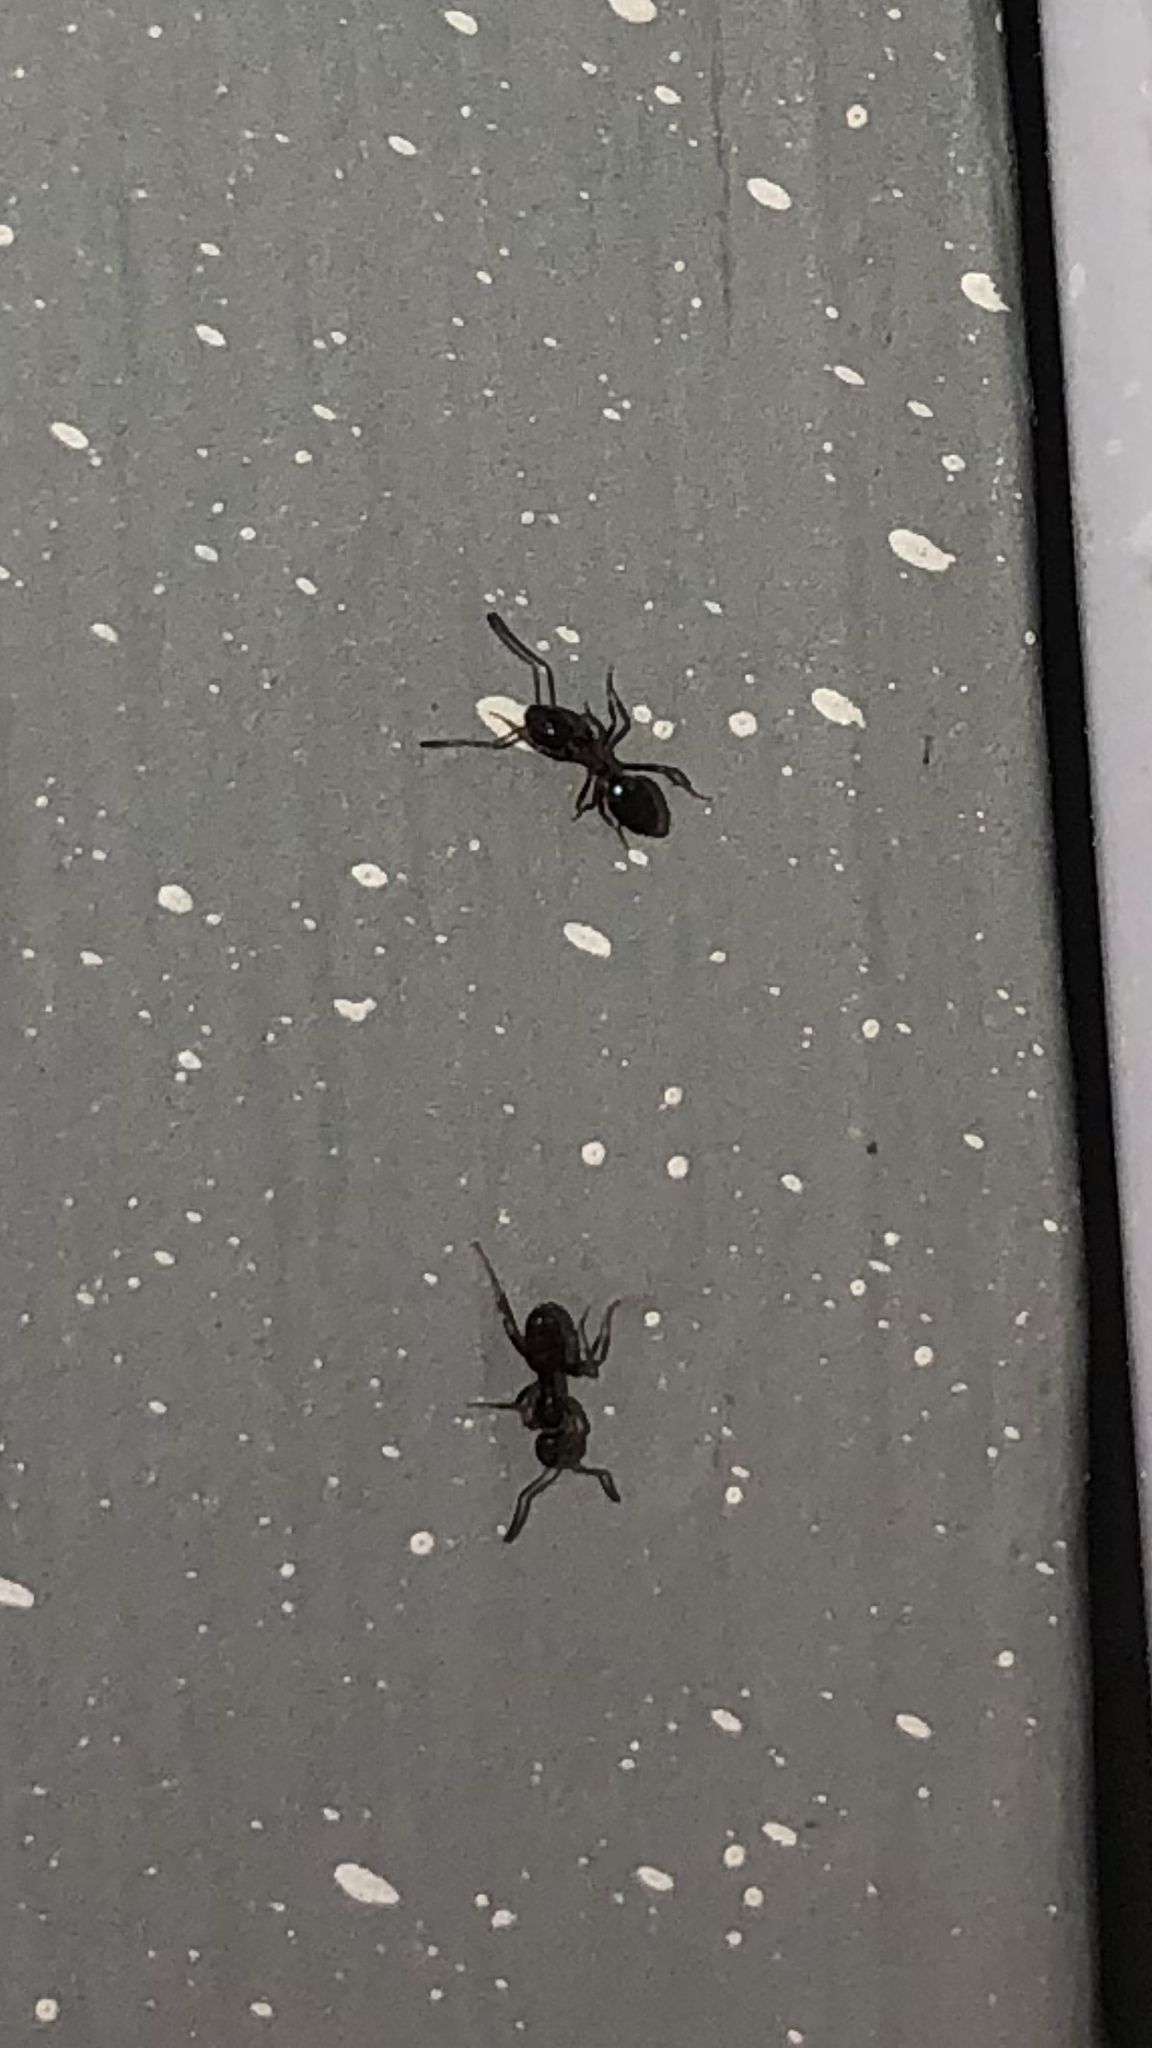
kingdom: Animalia
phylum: Arthropoda
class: Insecta
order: Hymenoptera
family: Formicidae
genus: Tapinoma
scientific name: Tapinoma sessile
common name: Odorous house ant
